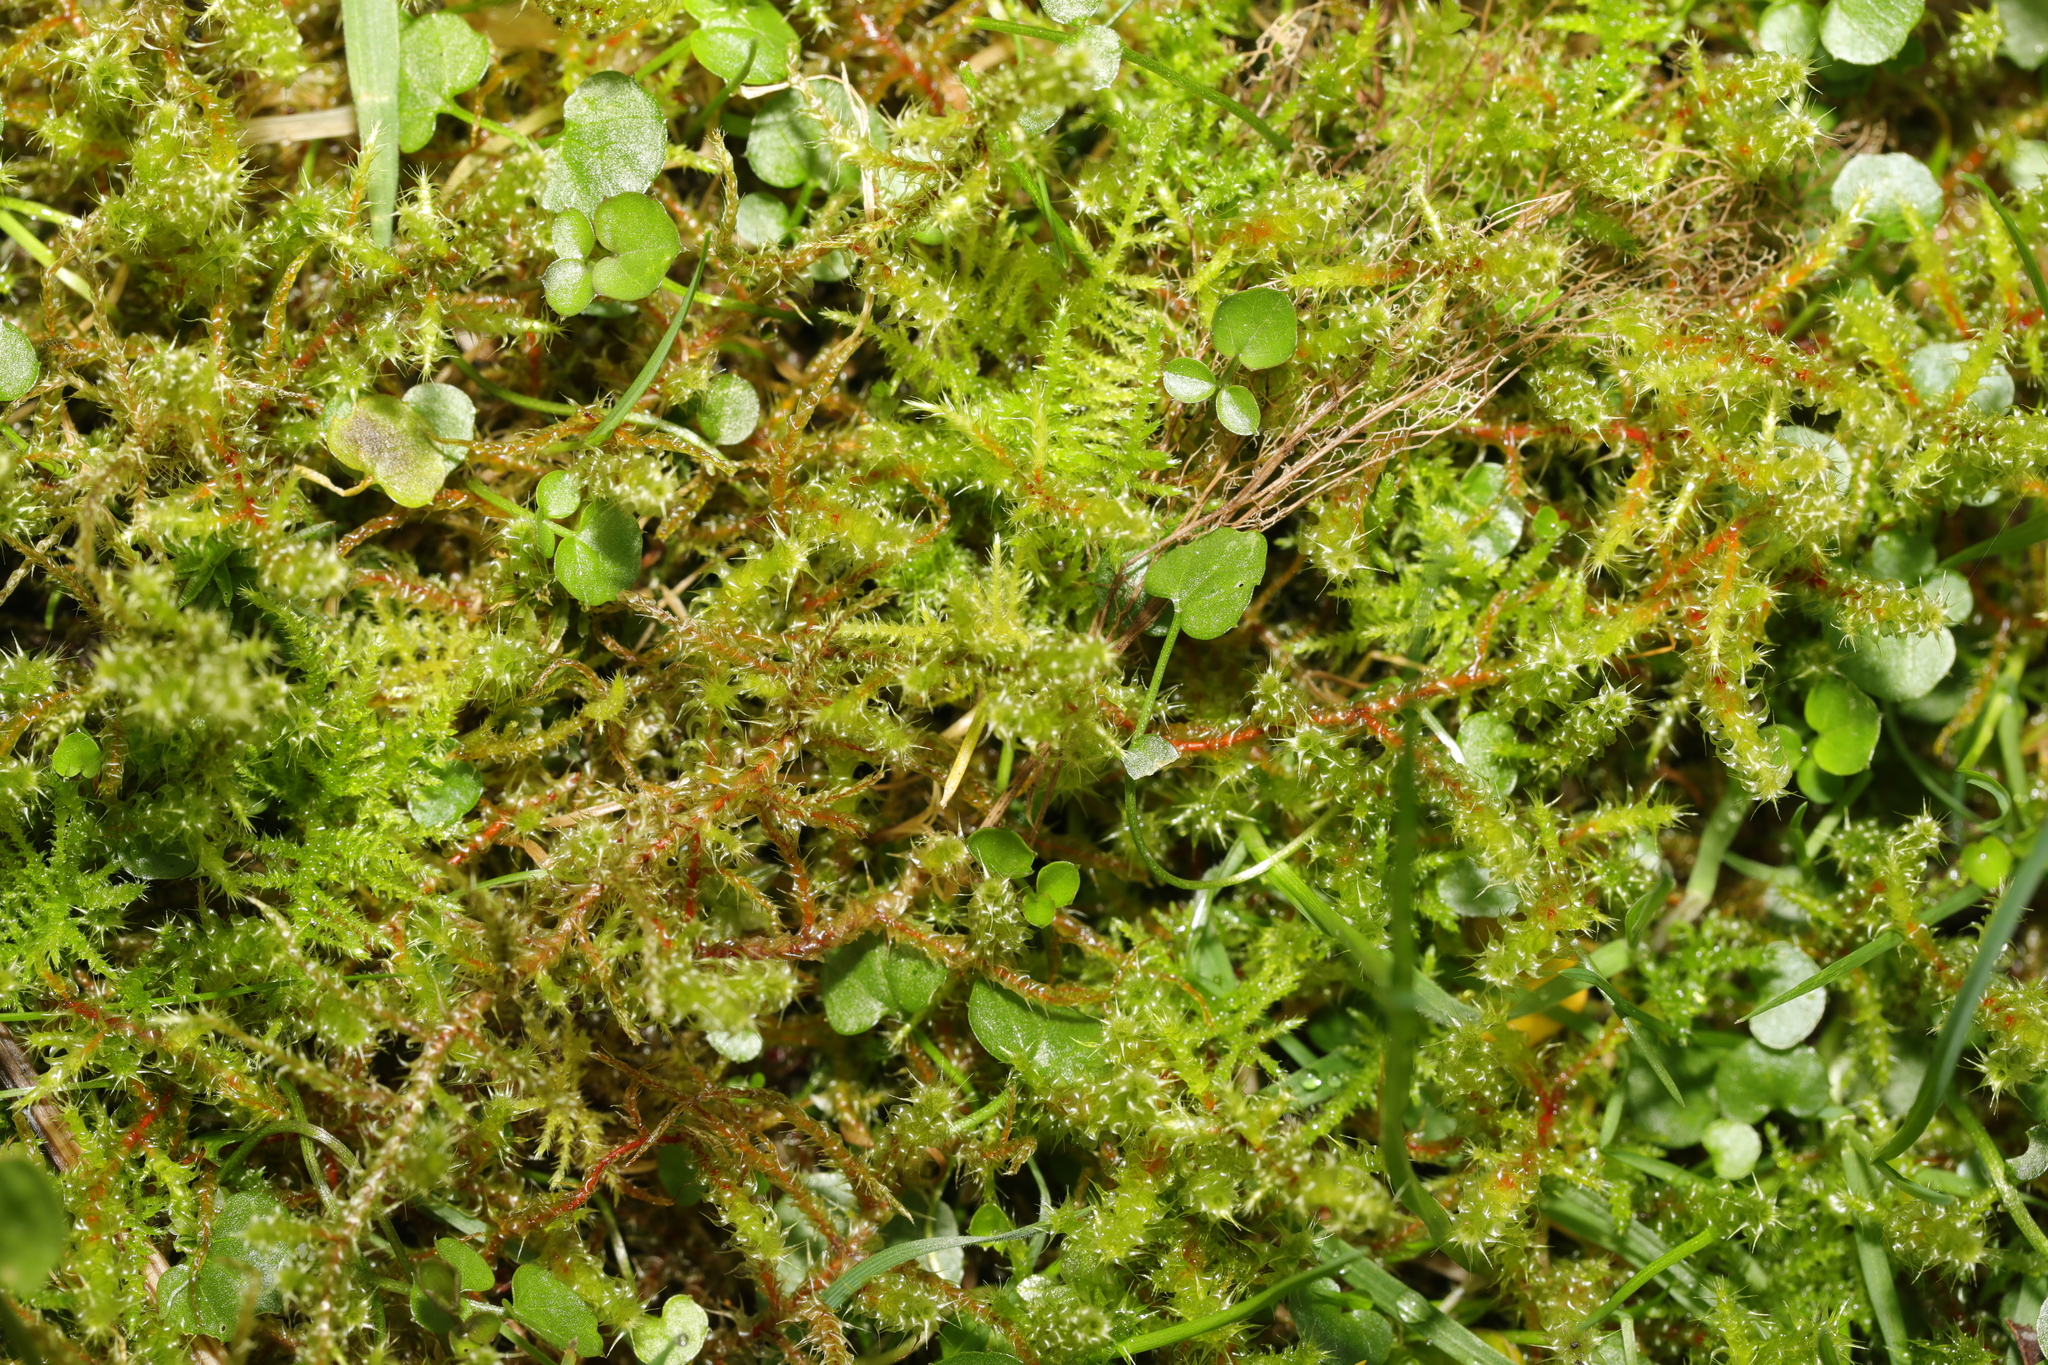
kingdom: Plantae
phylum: Bryophyta
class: Bryopsida
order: Hypnales
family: Brachytheciaceae
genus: Kindbergia
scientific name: Kindbergia praelonga
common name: Slender beaked moss
